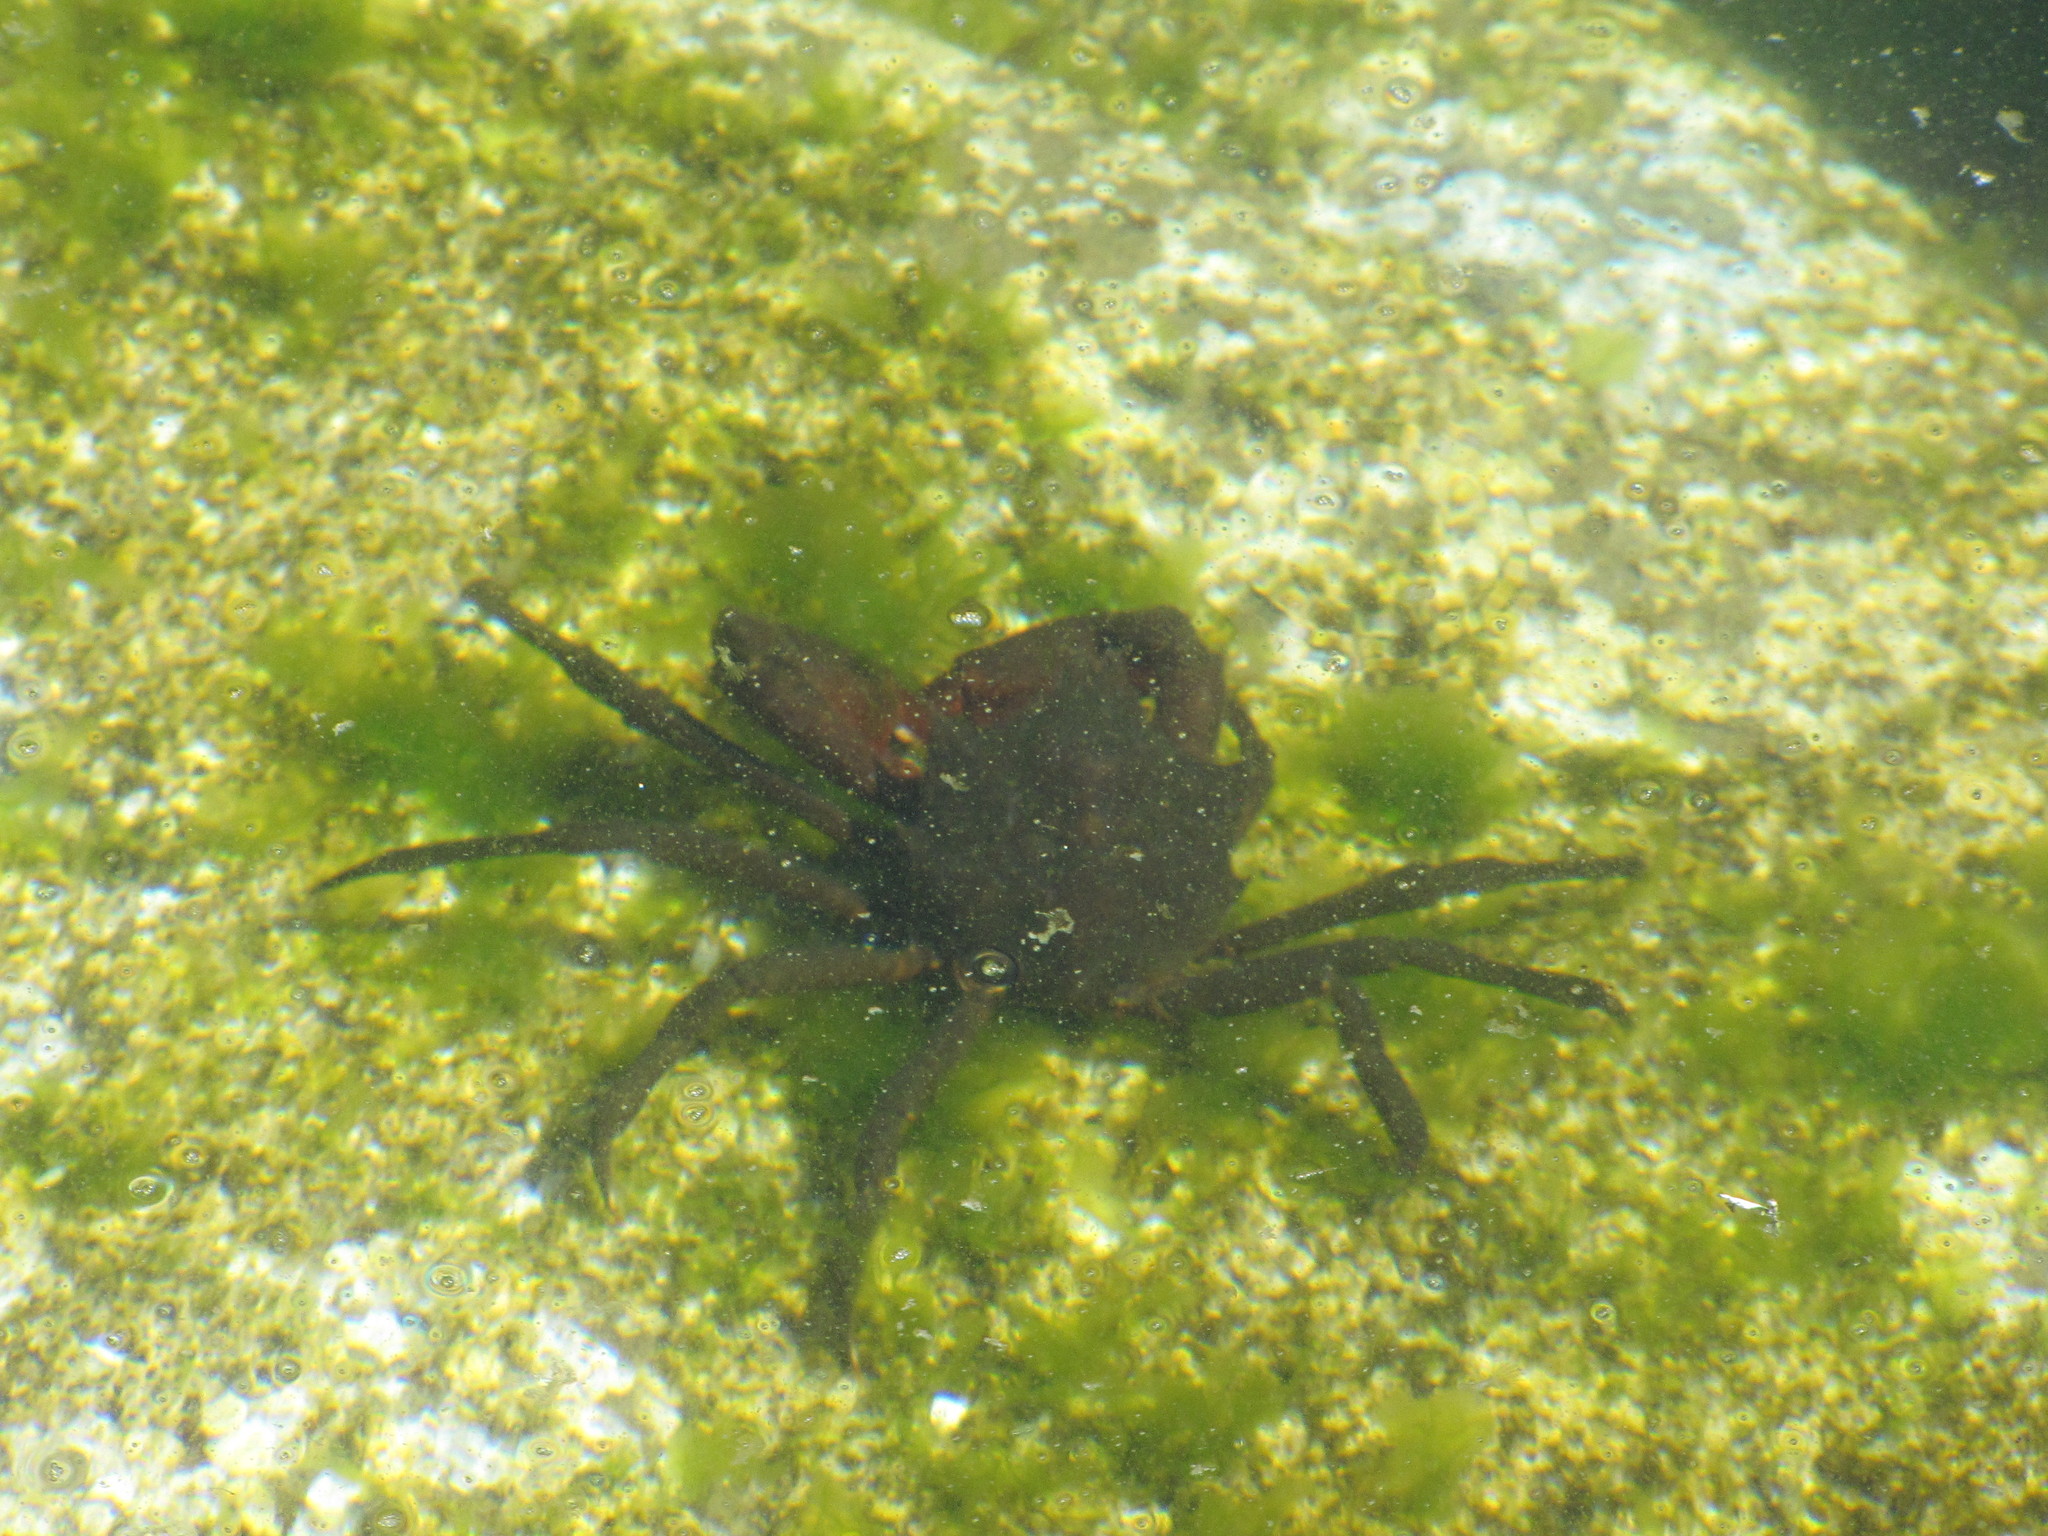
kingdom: Animalia
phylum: Arthropoda
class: Malacostraca
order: Decapoda
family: Epialtidae
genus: Pugettia
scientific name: Pugettia producta
